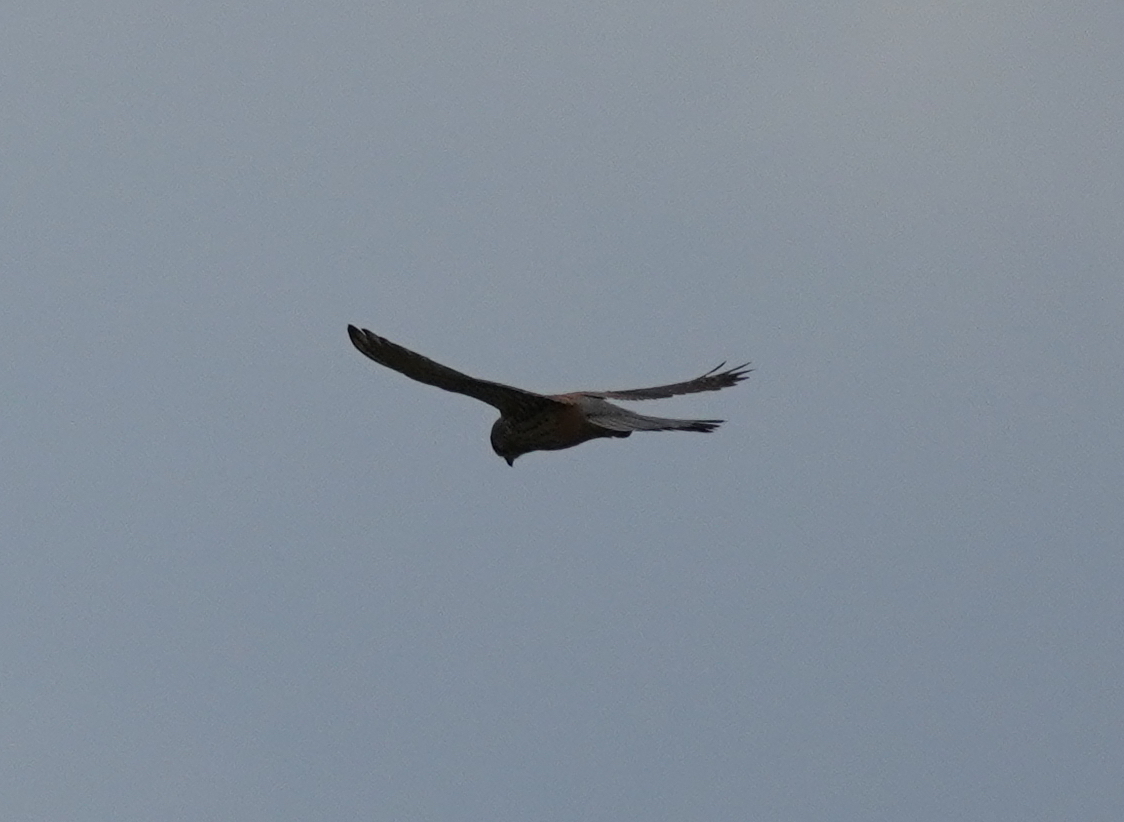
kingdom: Animalia
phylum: Chordata
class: Aves
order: Falconiformes
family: Falconidae
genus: Falco
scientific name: Falco tinnunculus
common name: Common kestrel
